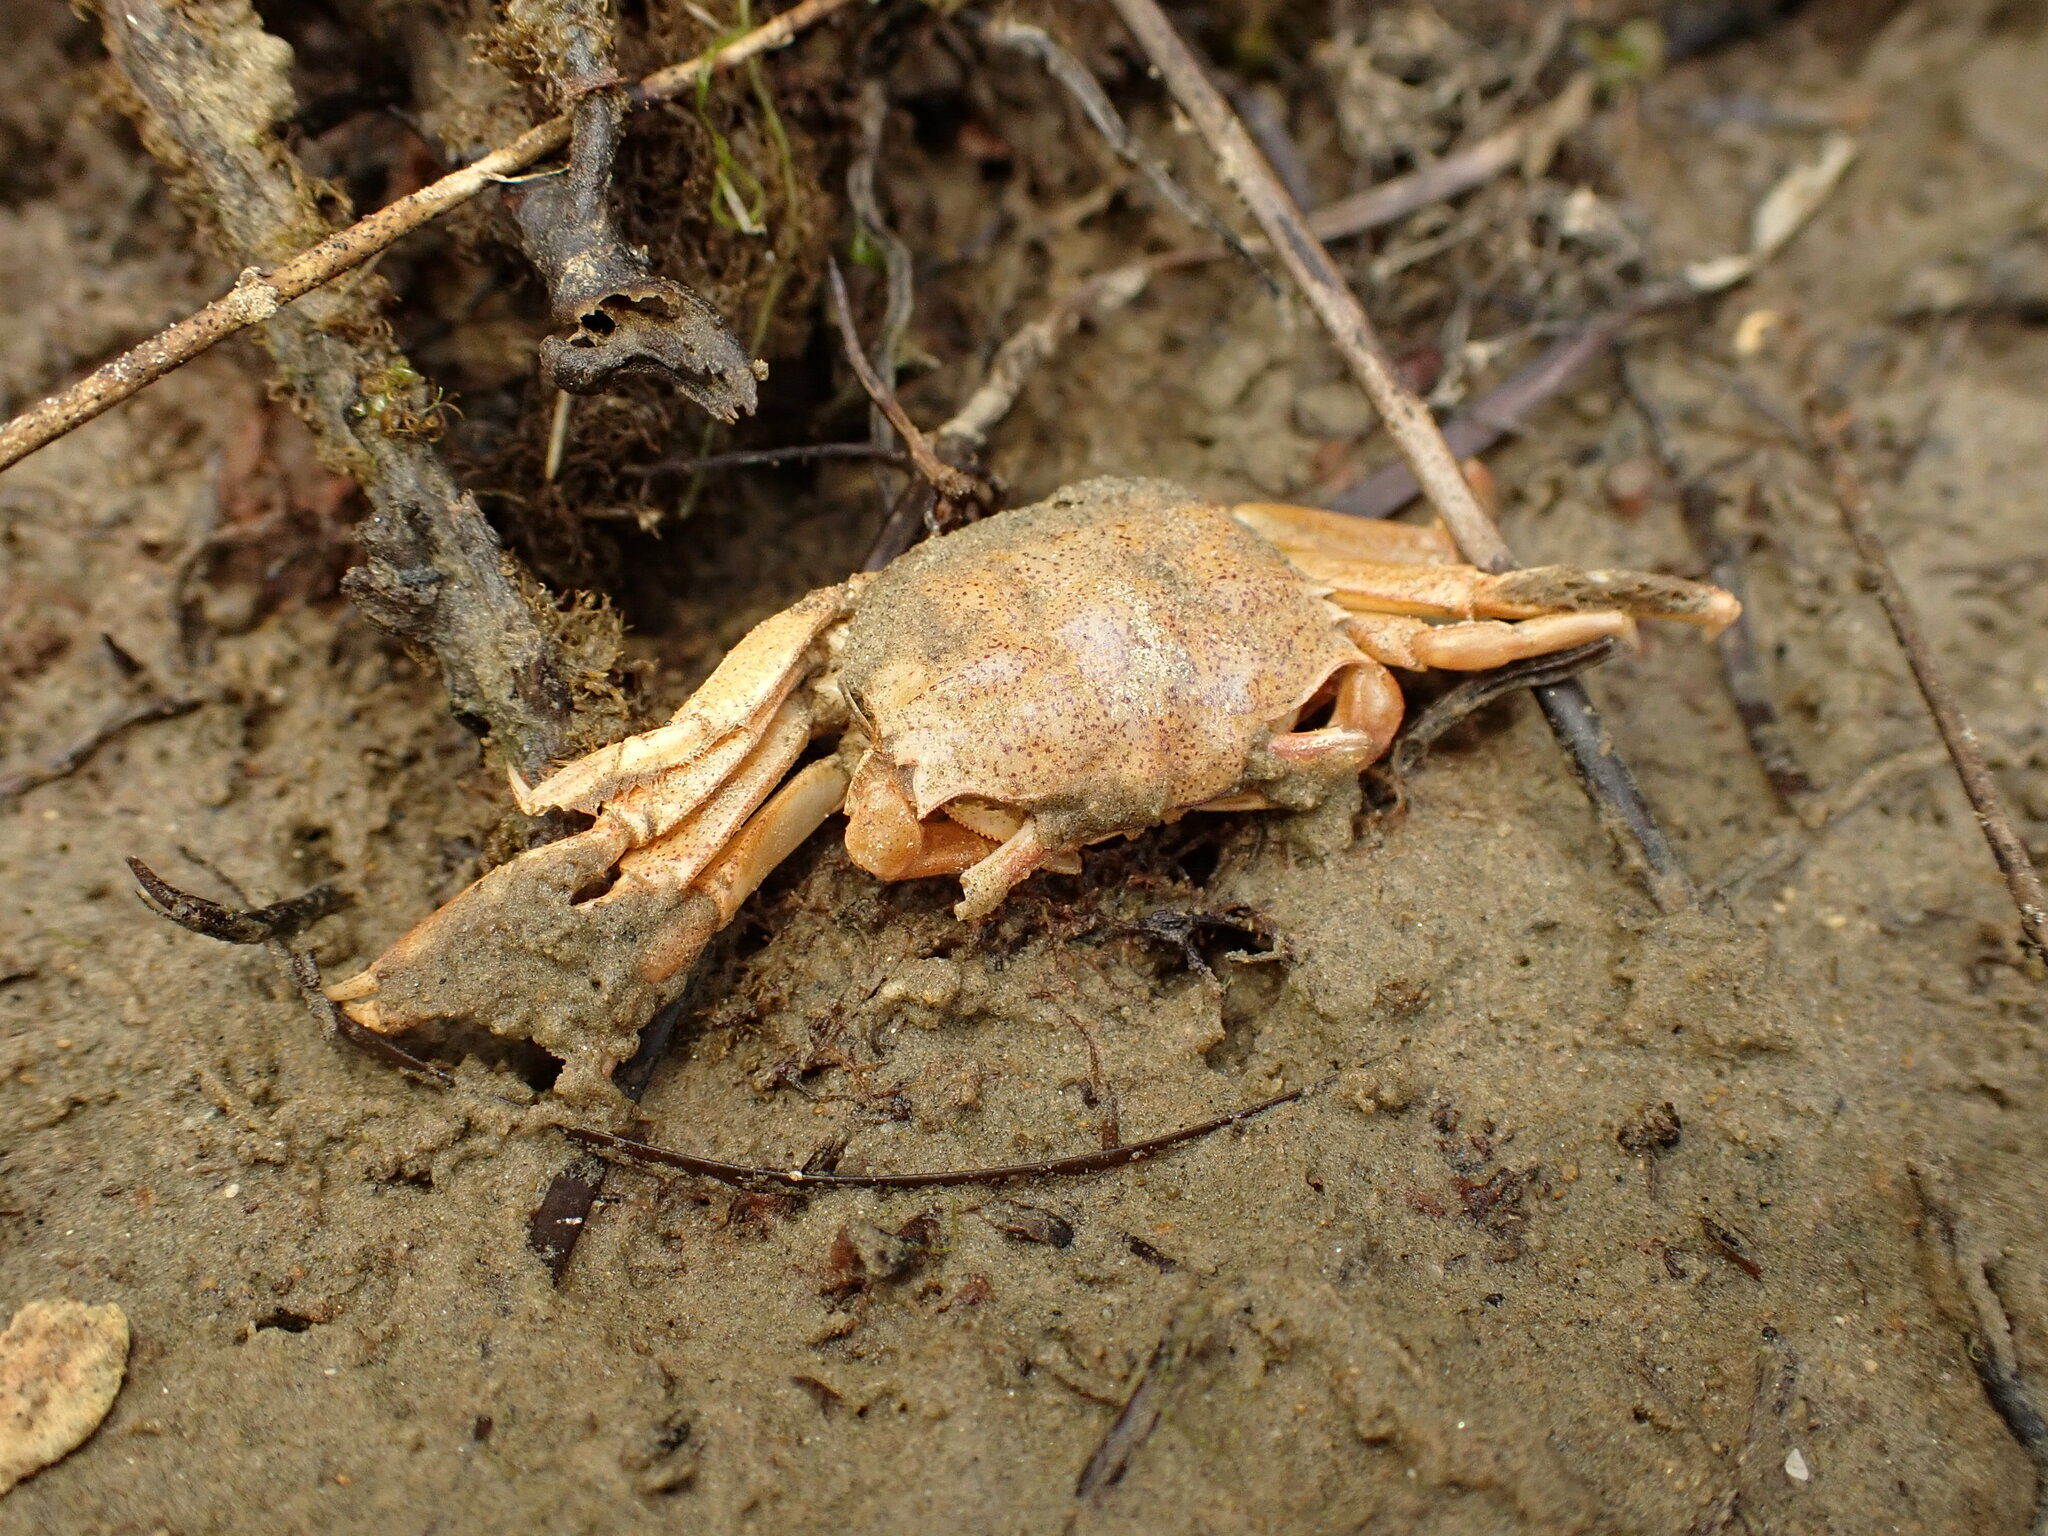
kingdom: Animalia
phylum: Arthropoda
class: Malacostraca
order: Decapoda
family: Macrophthalmidae
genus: Hemiplax
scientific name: Hemiplax hirtipes
